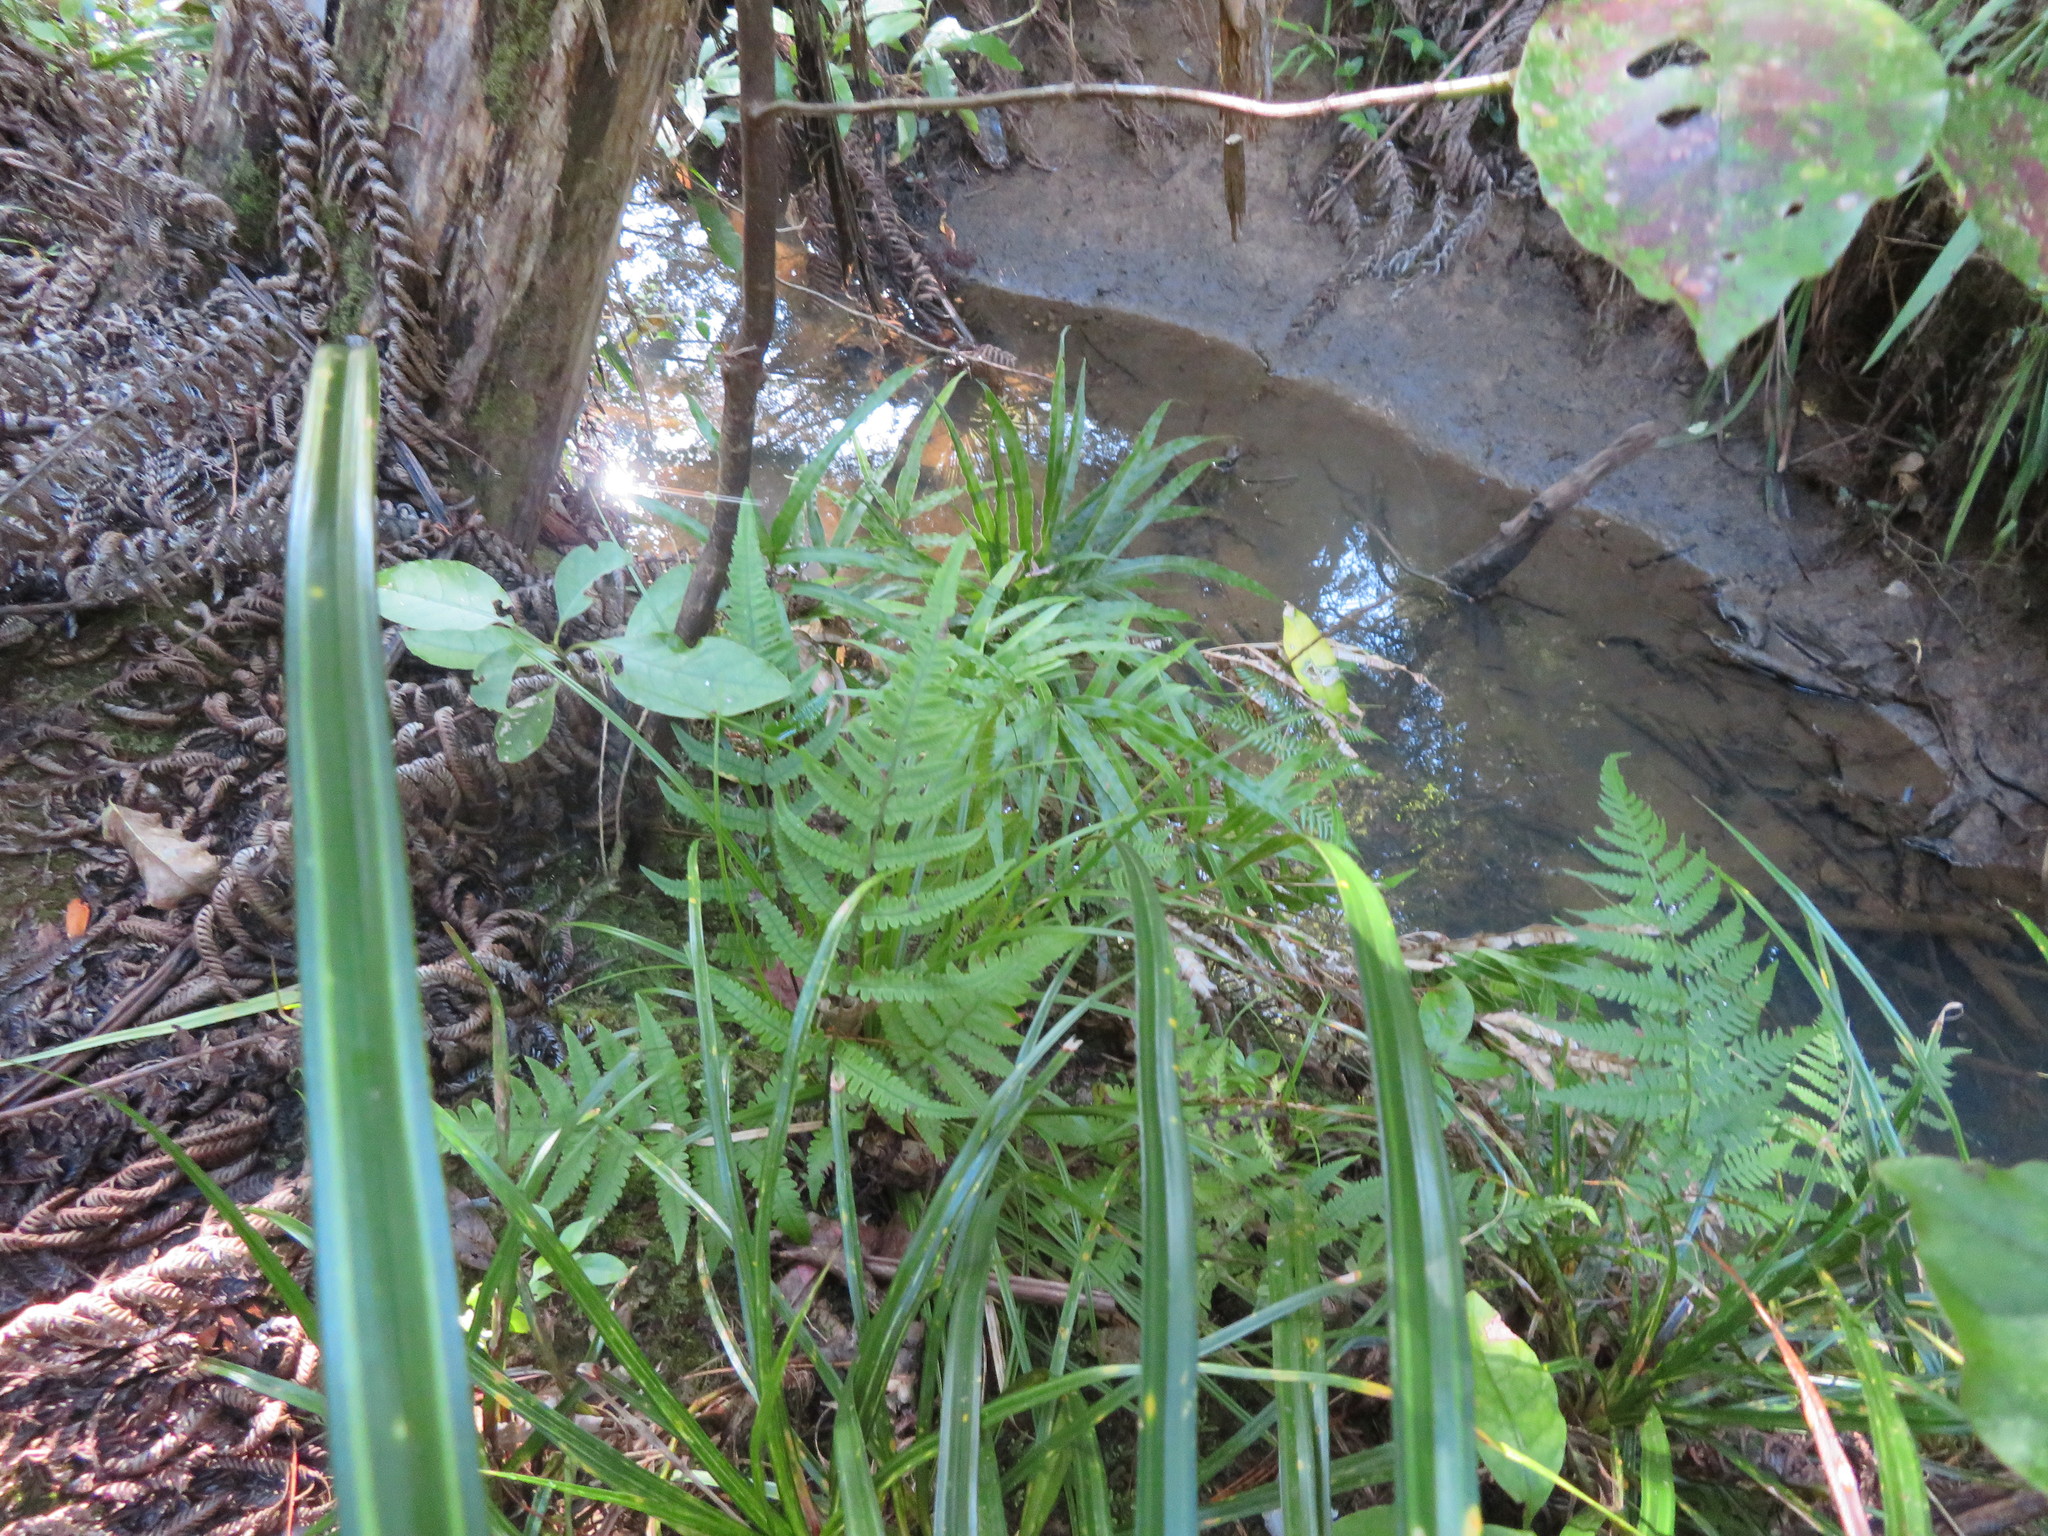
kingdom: Plantae
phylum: Tracheophyta
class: Polypodiopsida
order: Polypodiales
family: Pteridaceae
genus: Pteris
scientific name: Pteris cretica
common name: Ribbon fern
